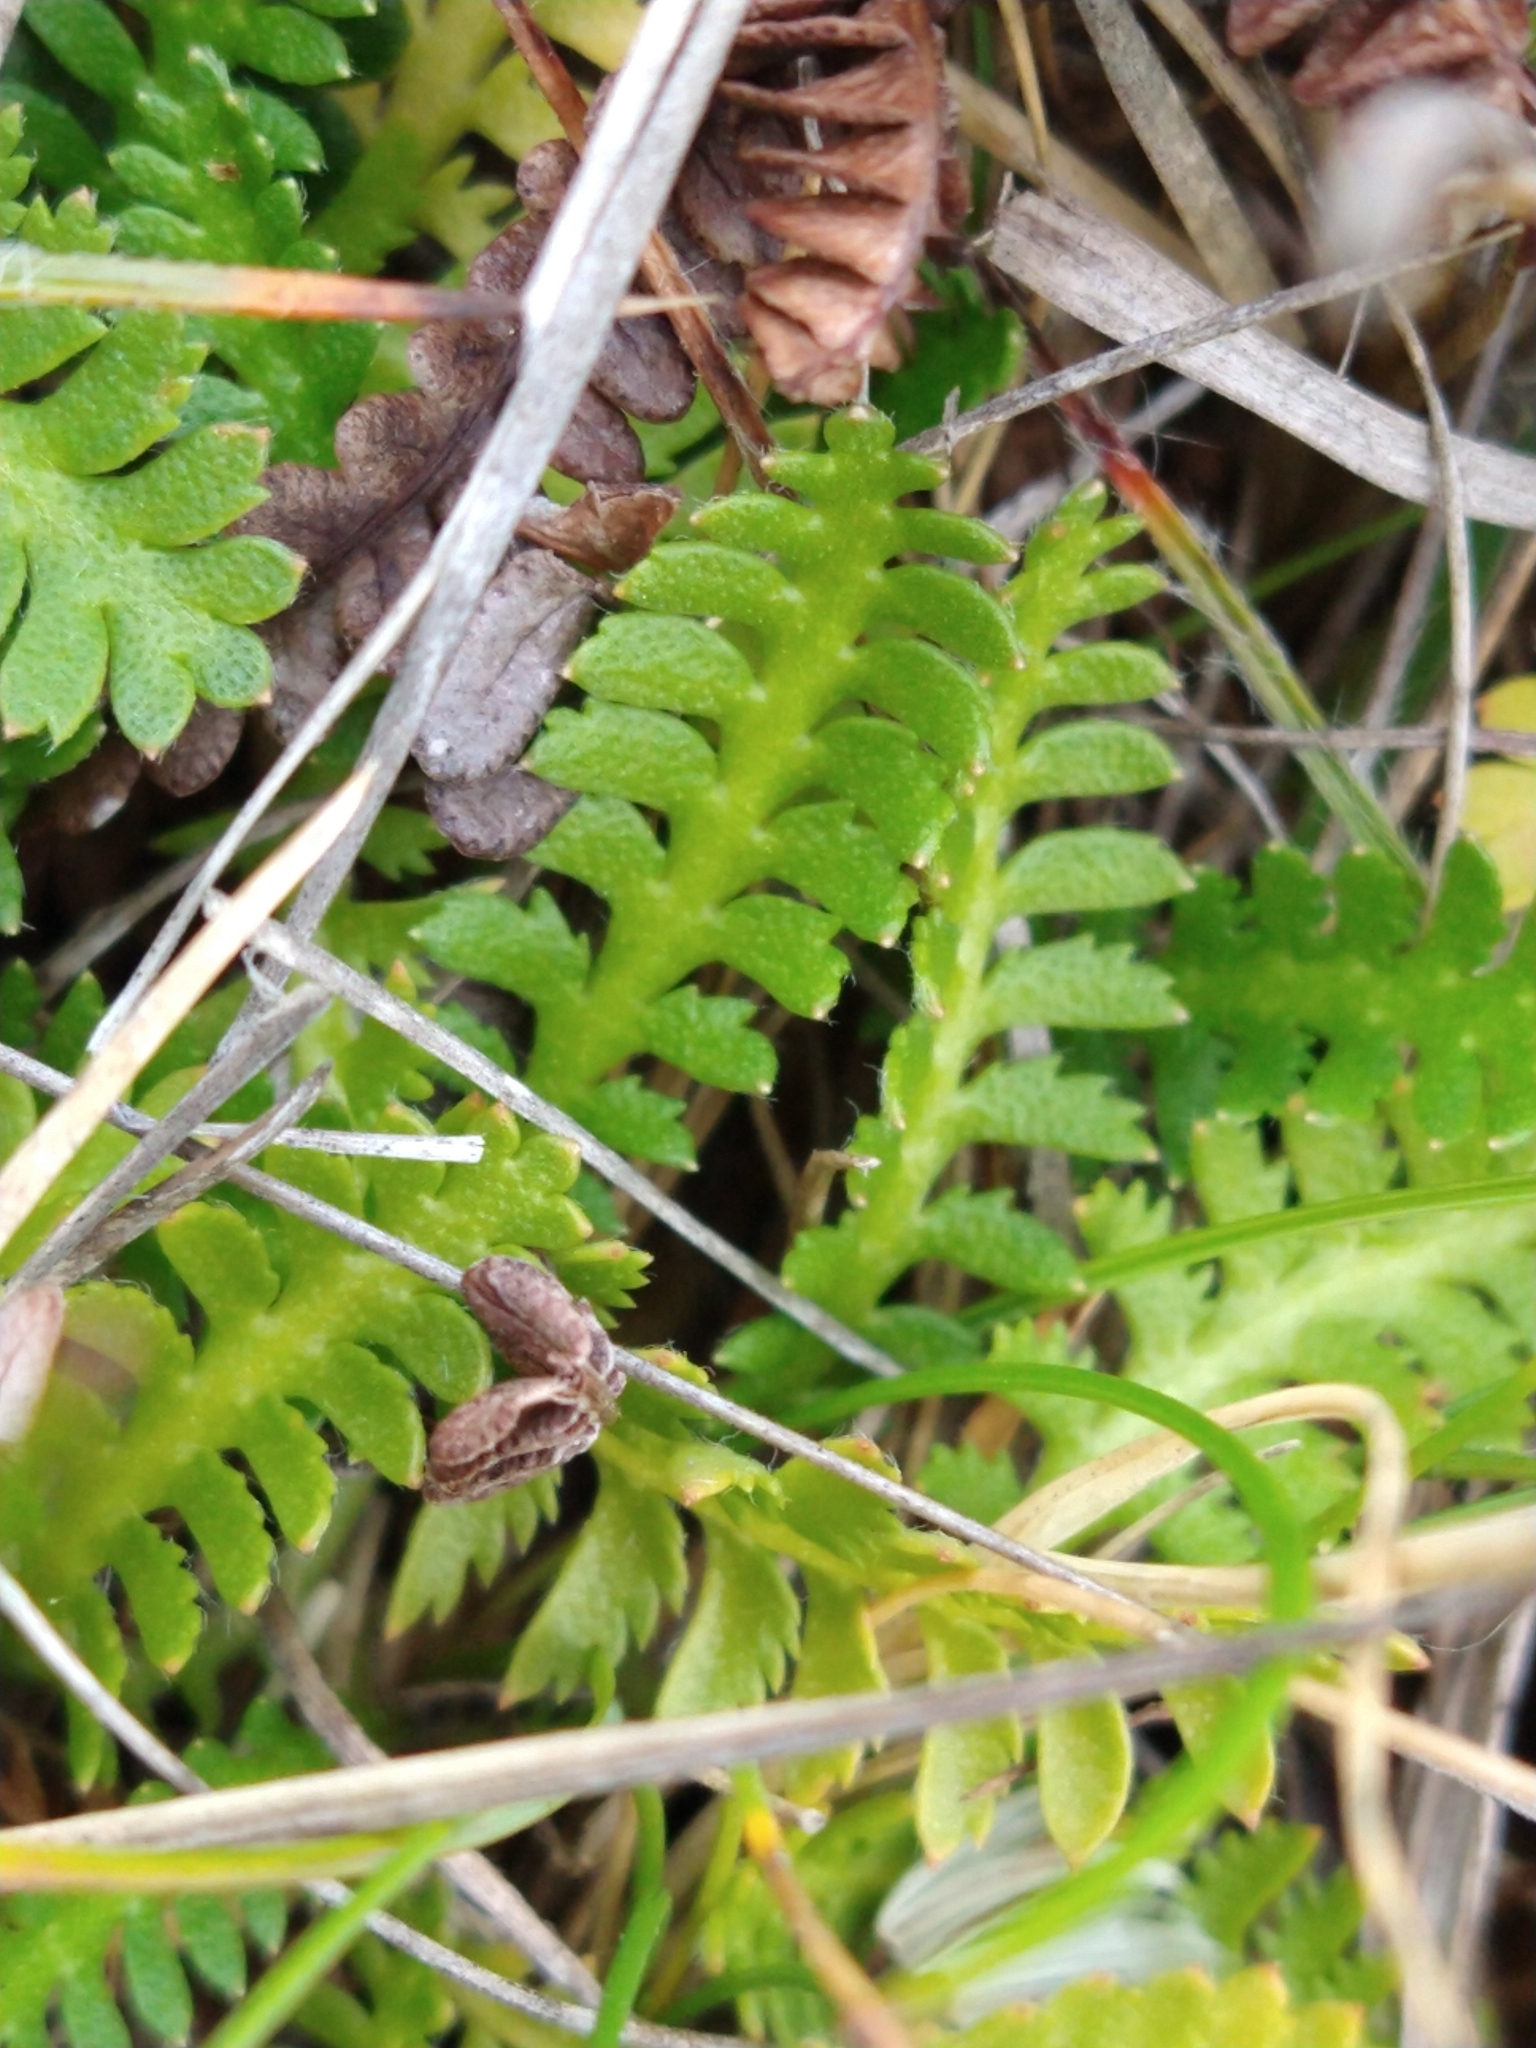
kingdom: Plantae
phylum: Tracheophyta
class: Magnoliopsida
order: Asterales
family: Asteraceae
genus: Leptinella
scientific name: Leptinella scariosa
